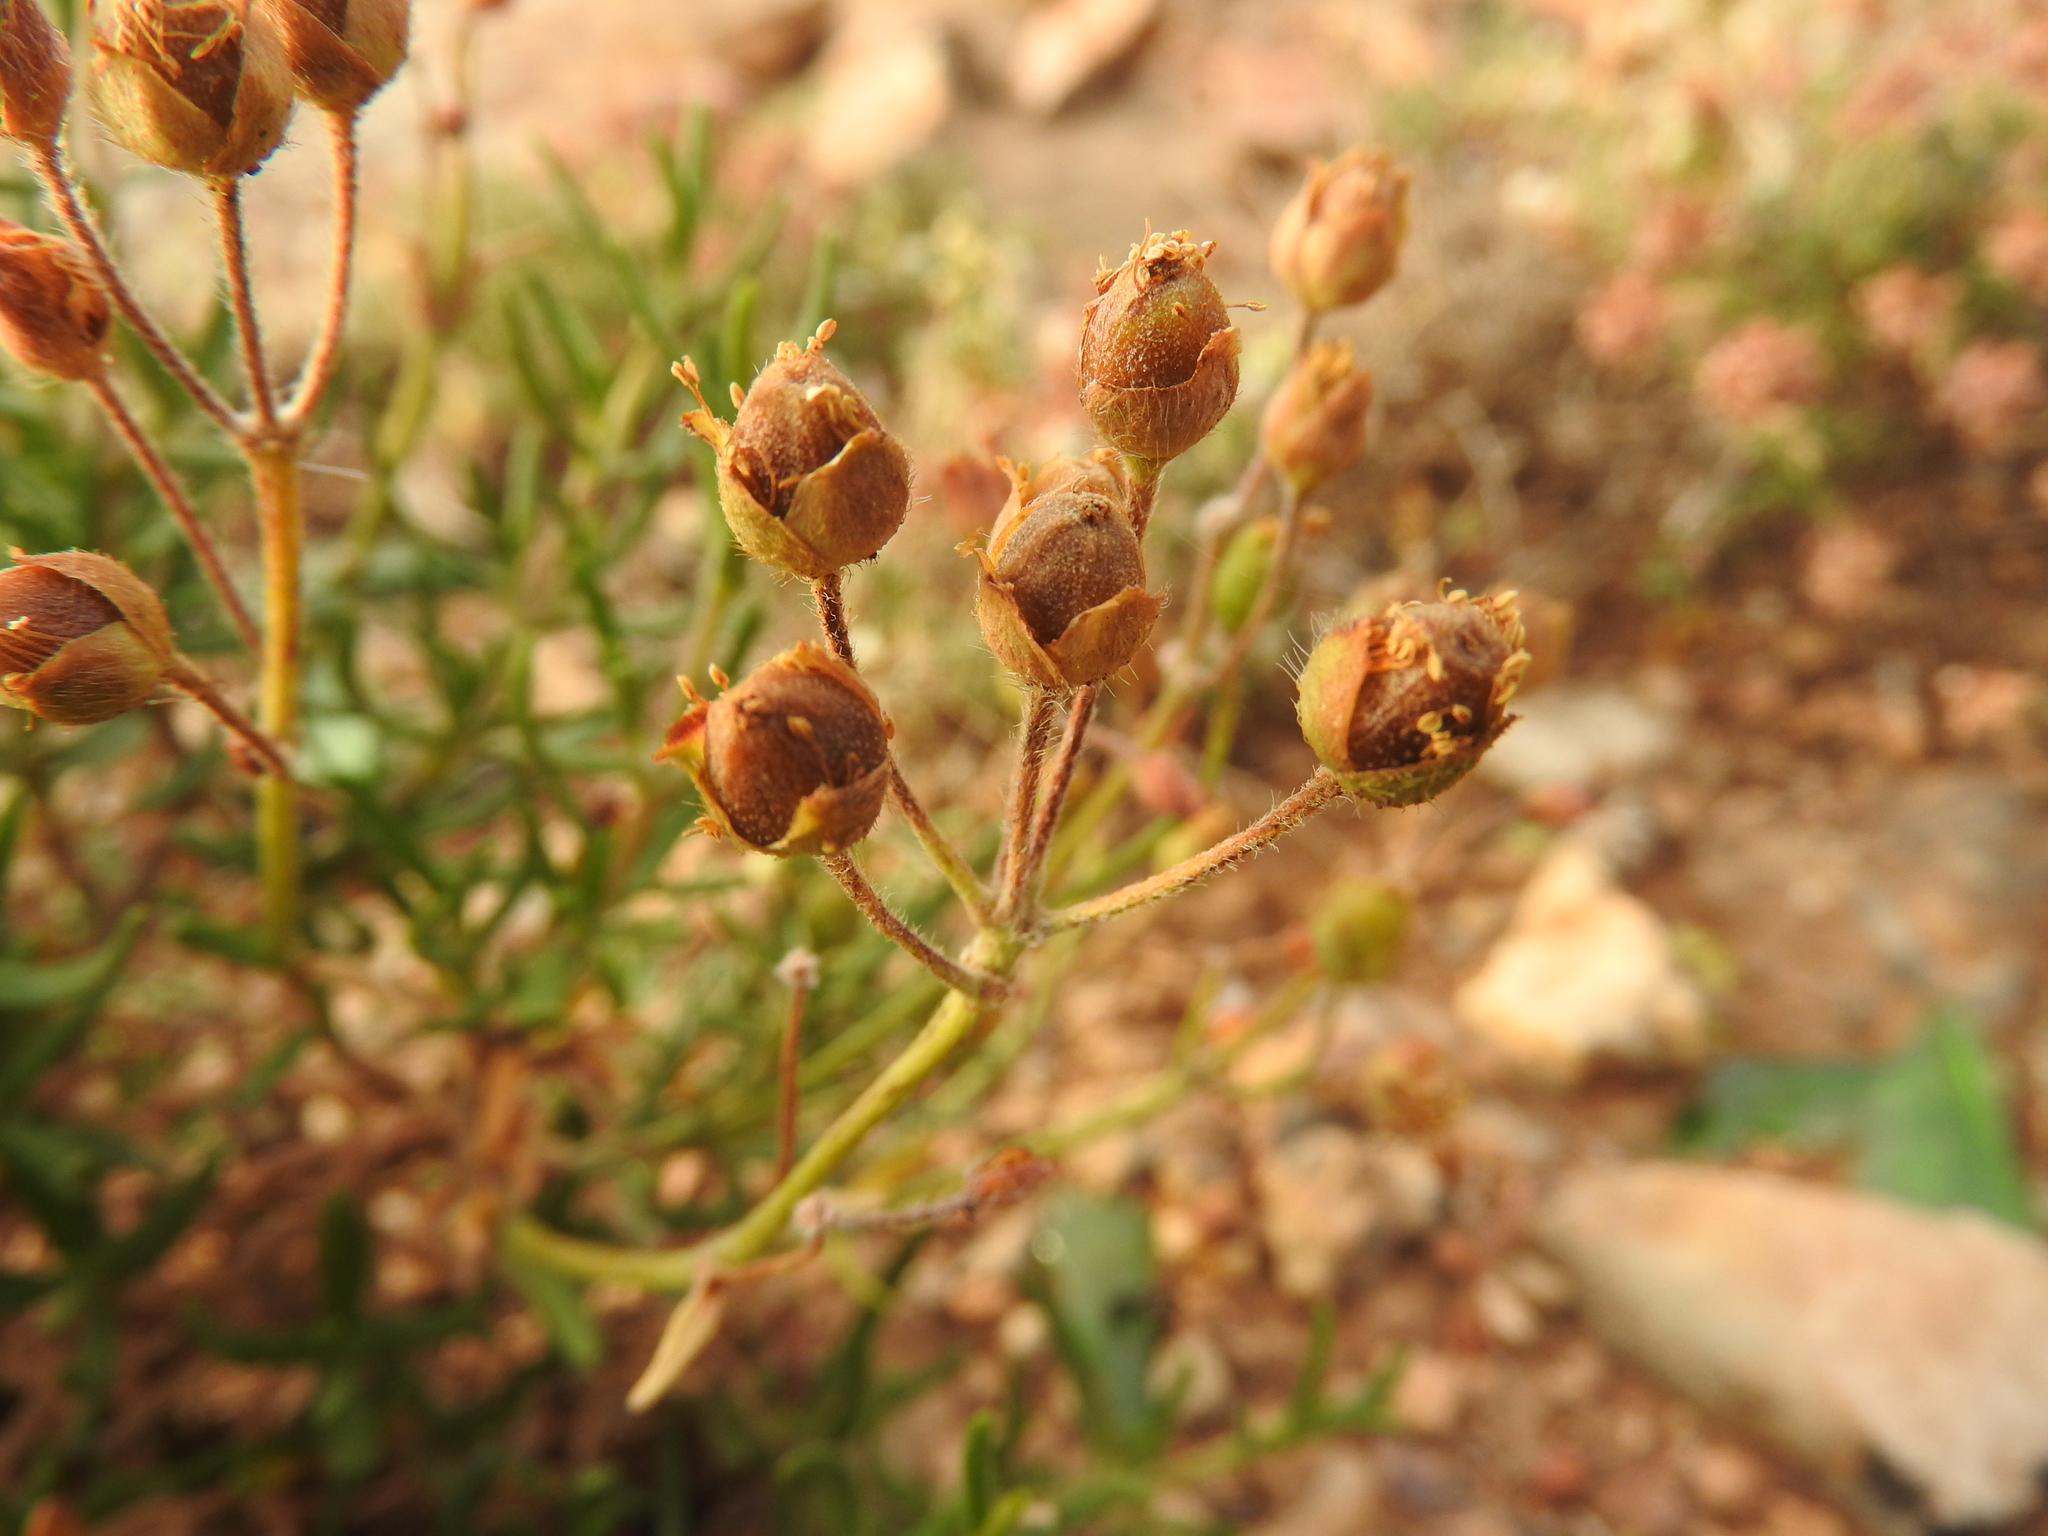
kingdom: Plantae
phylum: Tracheophyta
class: Magnoliopsida
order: Malvales
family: Cistaceae
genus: Cistus
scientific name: Cistus clusii
